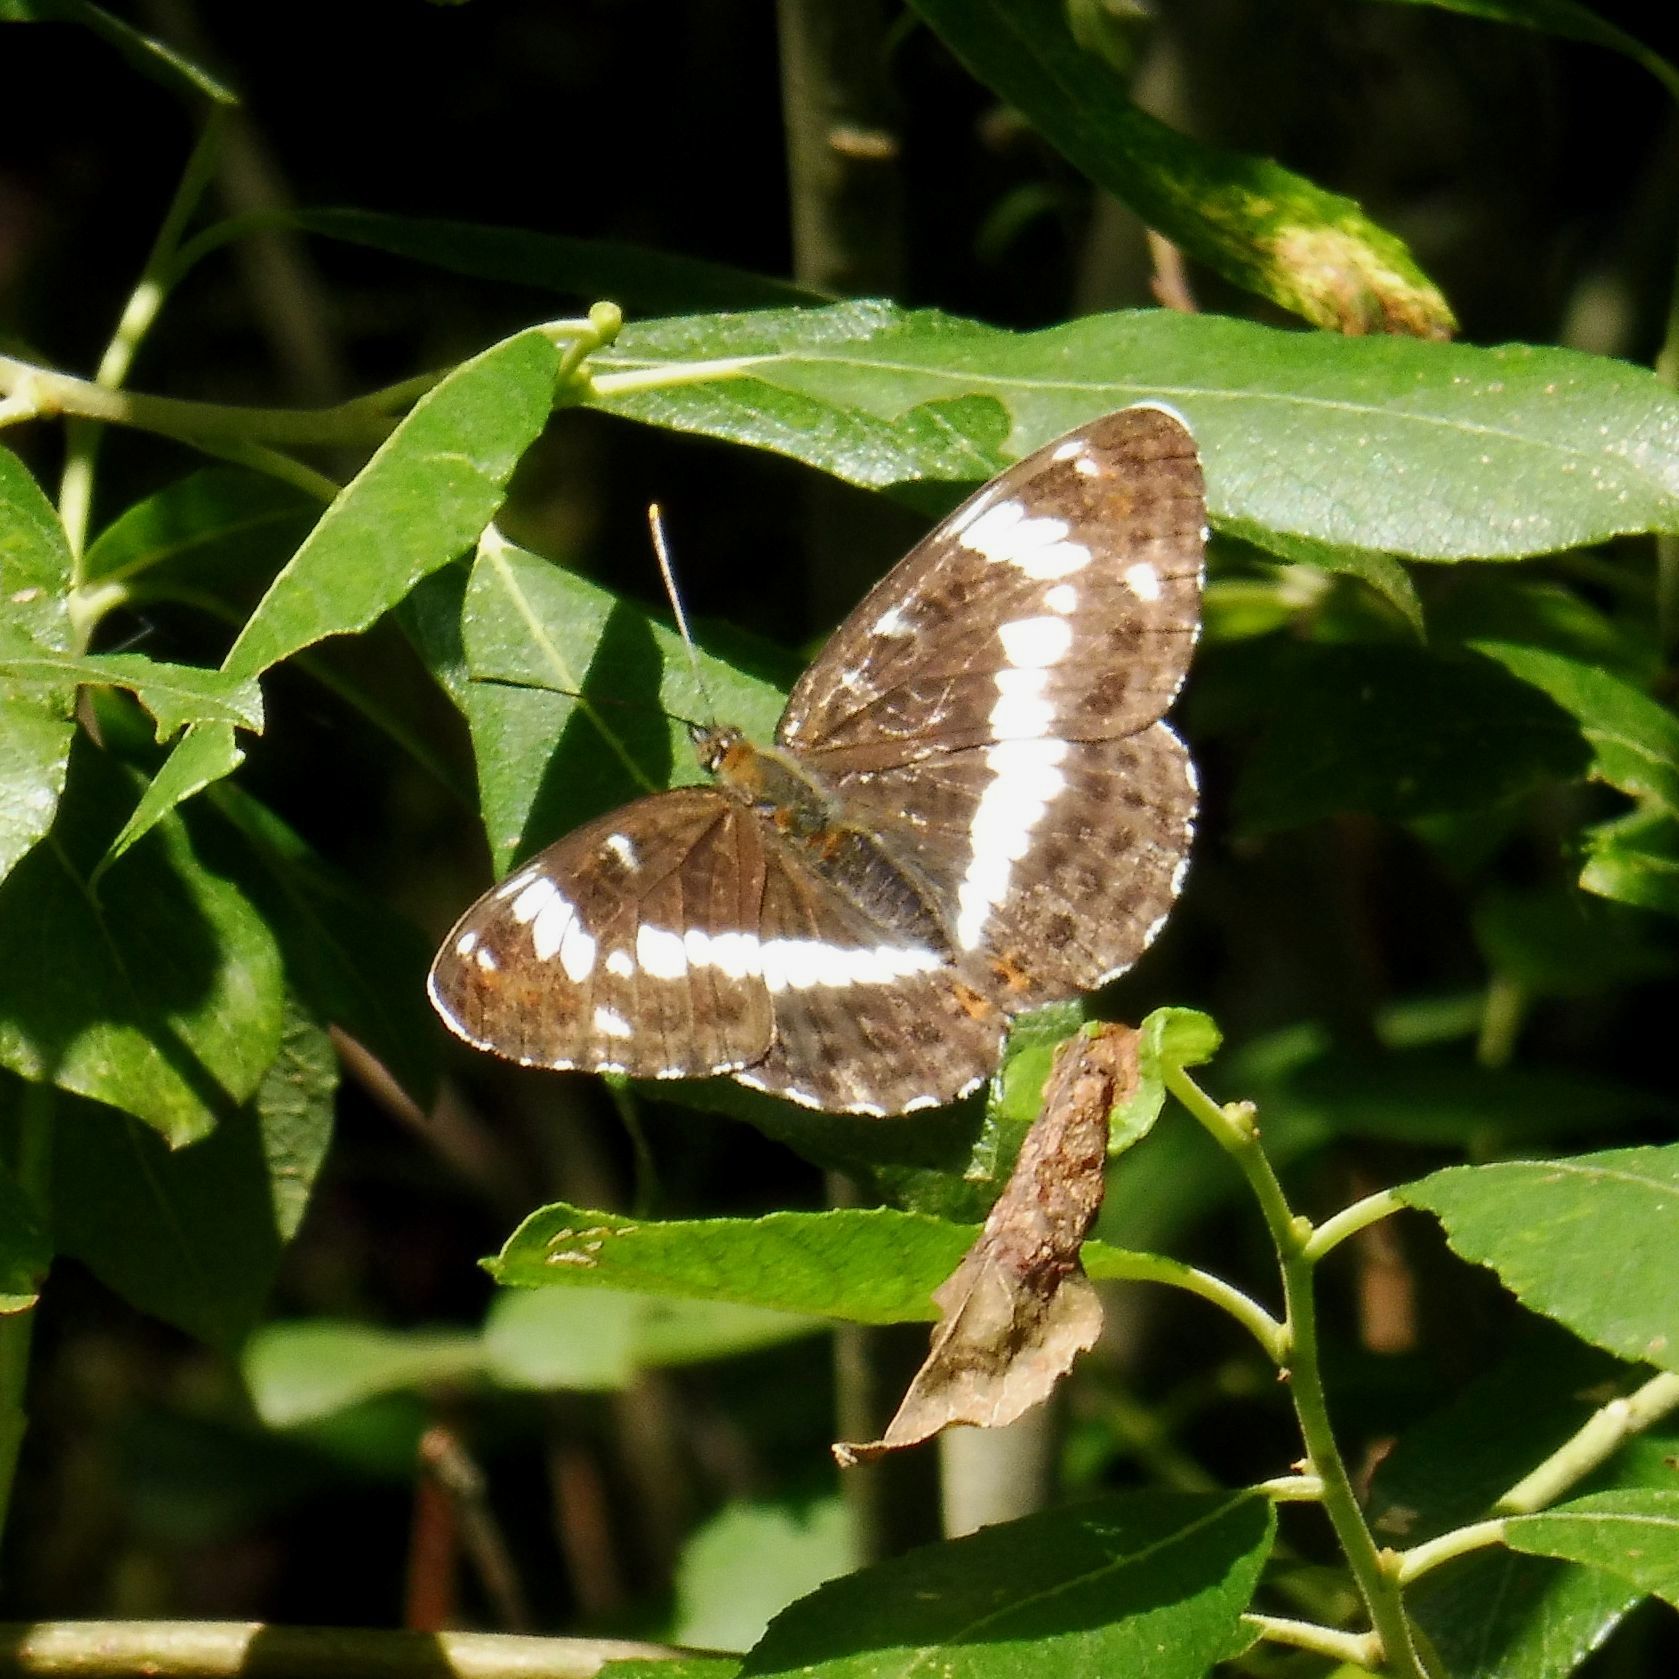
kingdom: Animalia
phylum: Arthropoda
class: Insecta
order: Lepidoptera
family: Nymphalidae
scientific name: Nymphalidae
